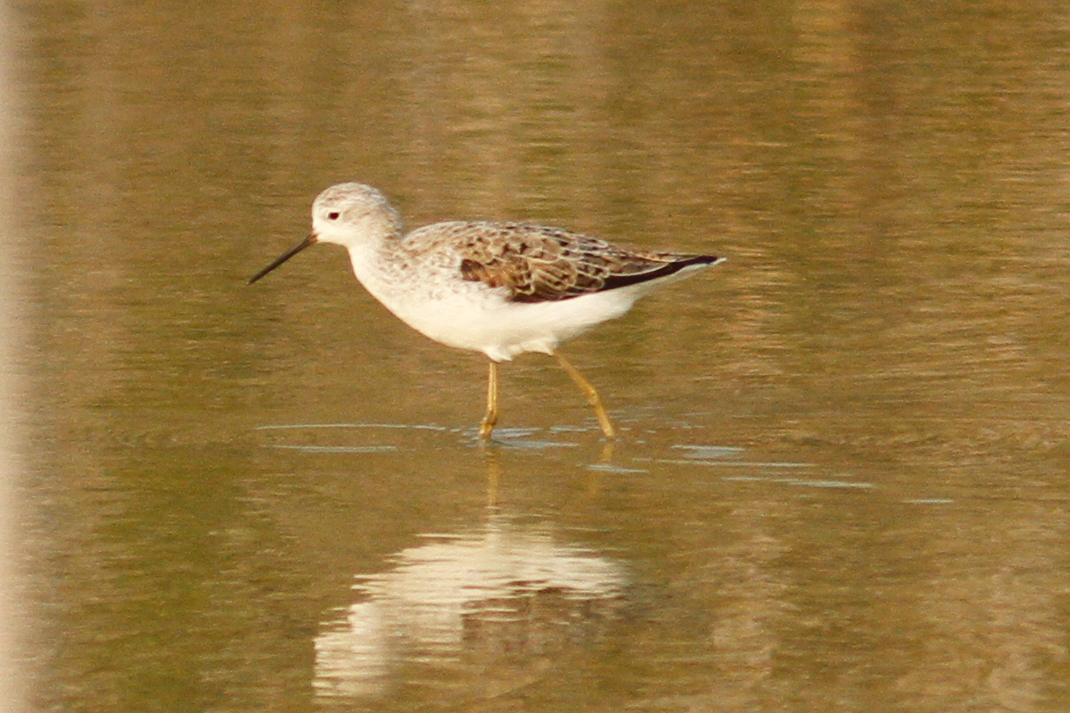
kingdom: Animalia
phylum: Chordata
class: Aves
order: Charadriiformes
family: Scolopacidae
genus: Tringa
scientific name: Tringa stagnatilis
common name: Marsh sandpiper
